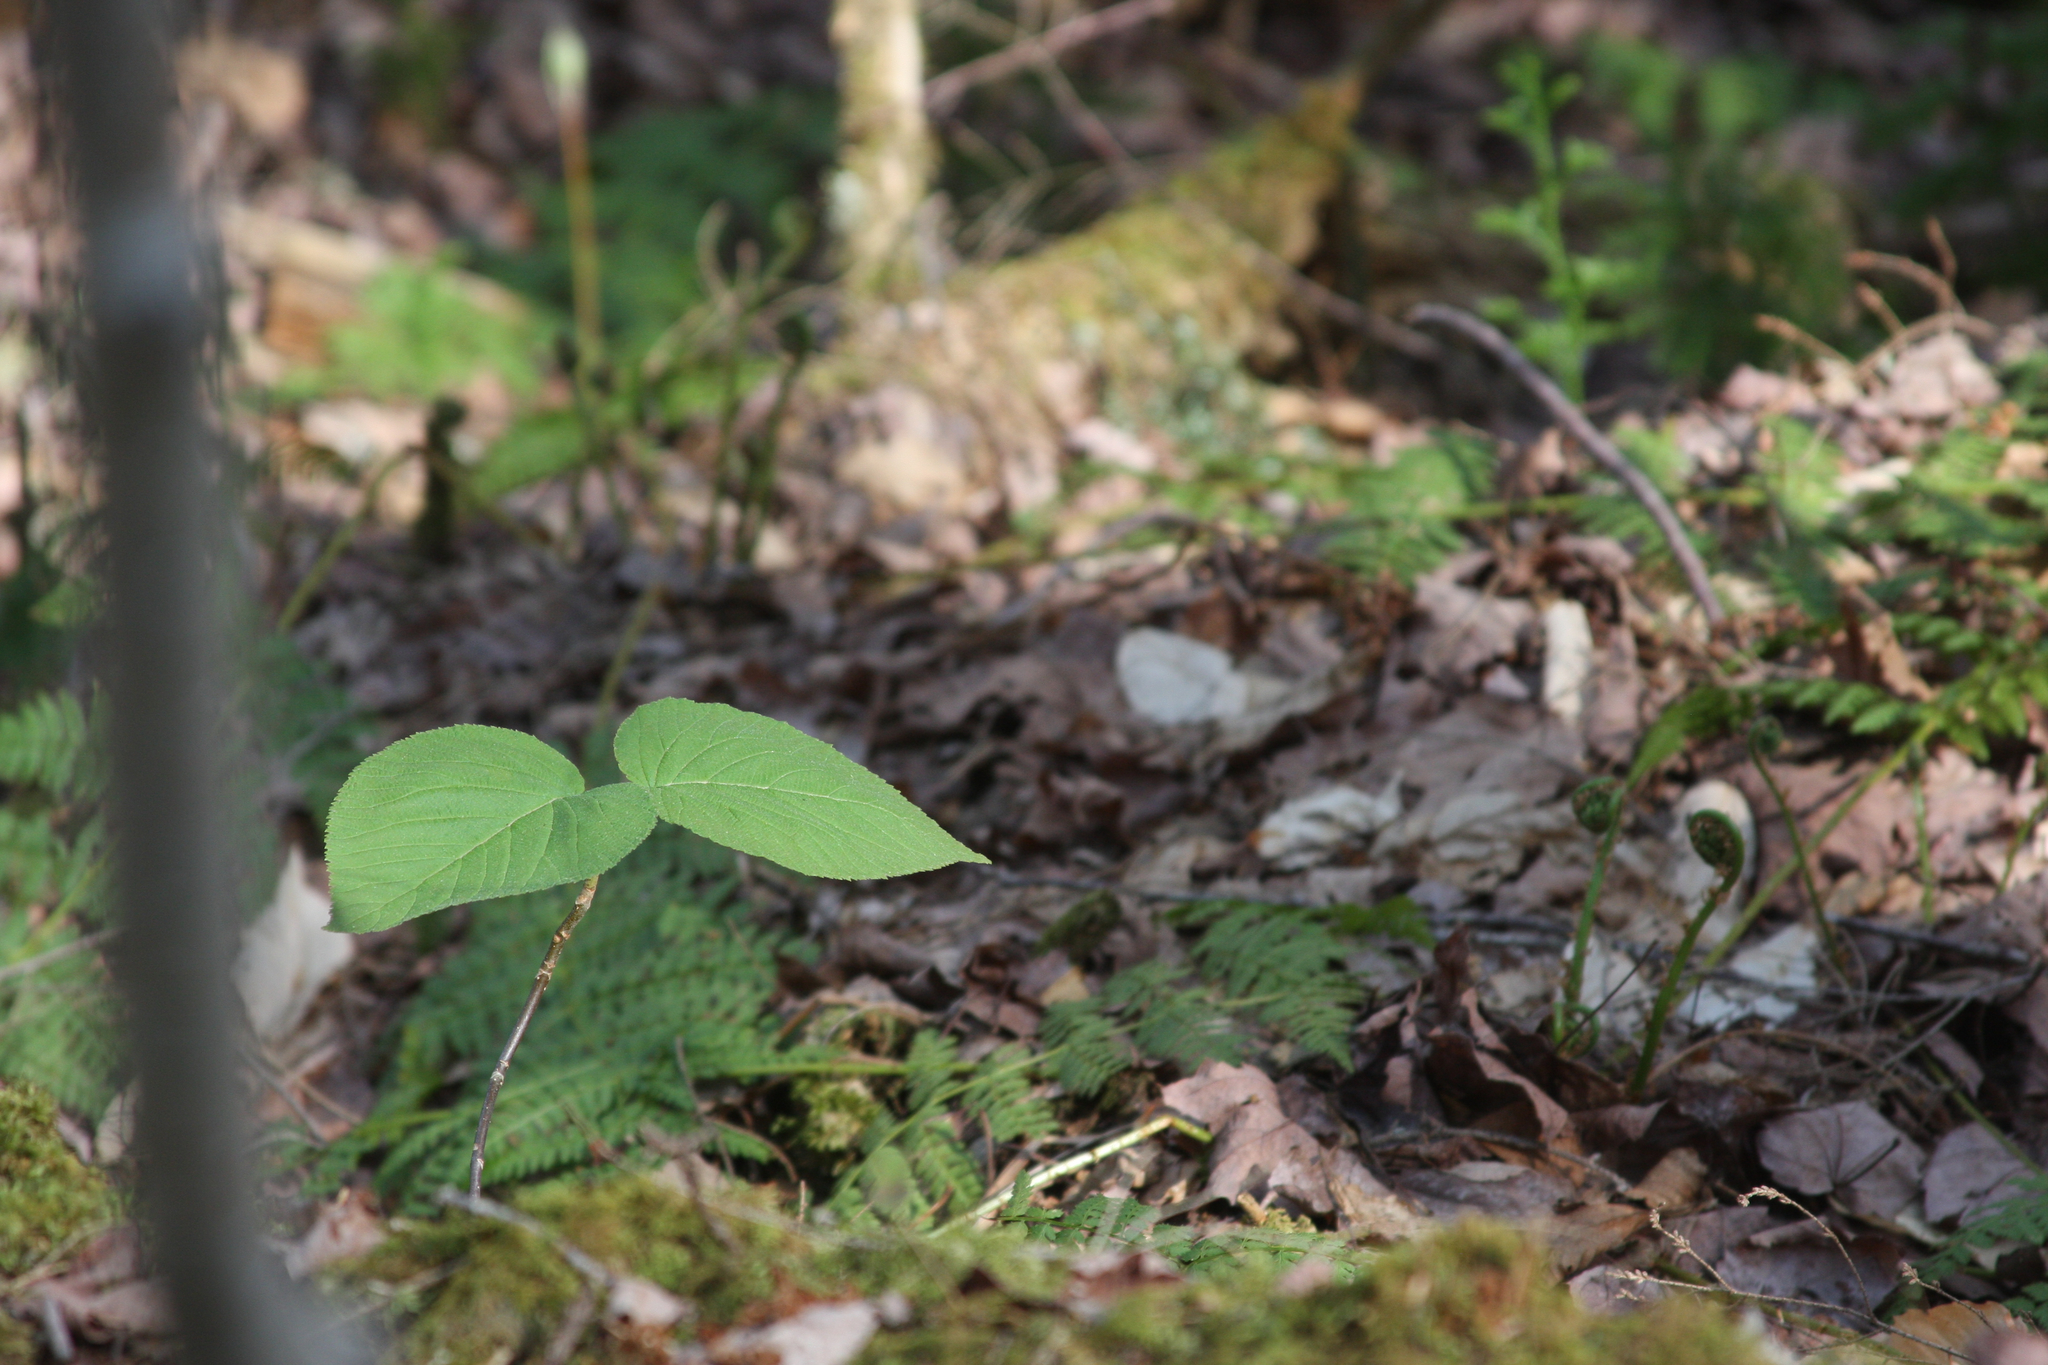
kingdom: Plantae
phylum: Tracheophyta
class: Magnoliopsida
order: Dipsacales
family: Viburnaceae
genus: Viburnum
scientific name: Viburnum lantanoides
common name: Hobblebush
